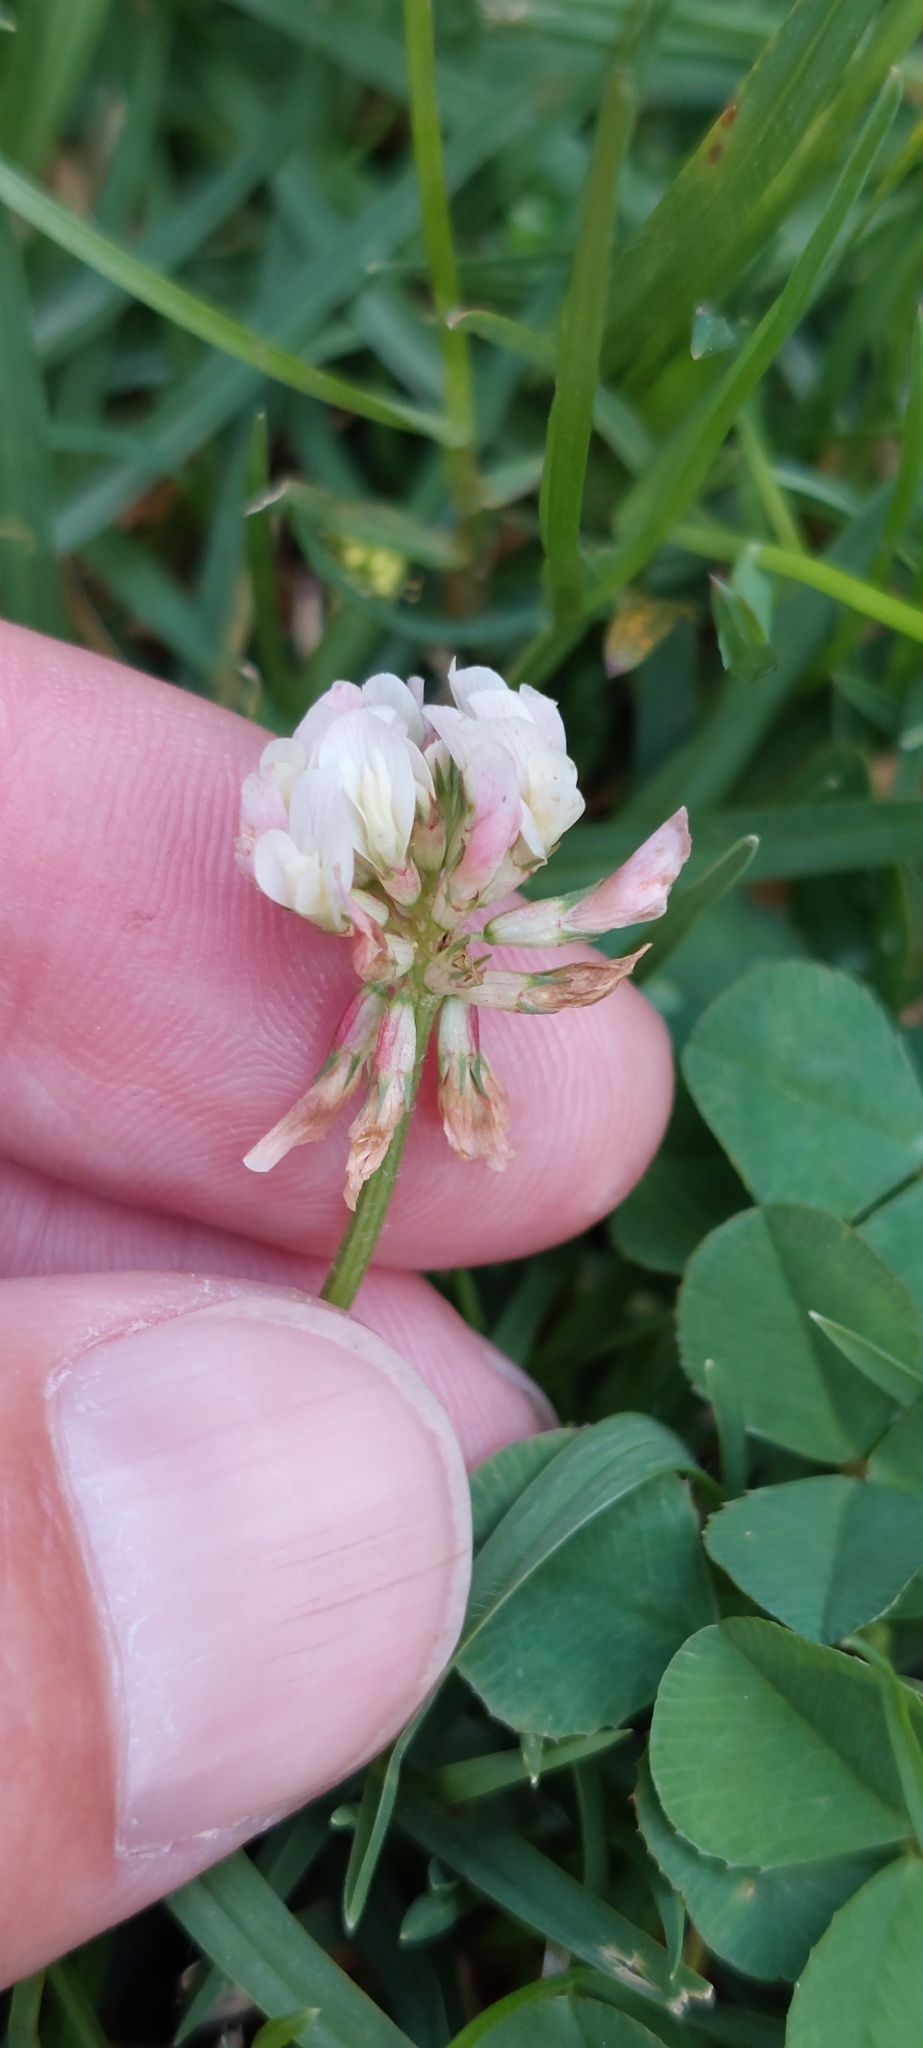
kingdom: Plantae
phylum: Tracheophyta
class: Magnoliopsida
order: Fabales
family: Fabaceae
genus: Trifolium
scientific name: Trifolium repens
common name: White clover
